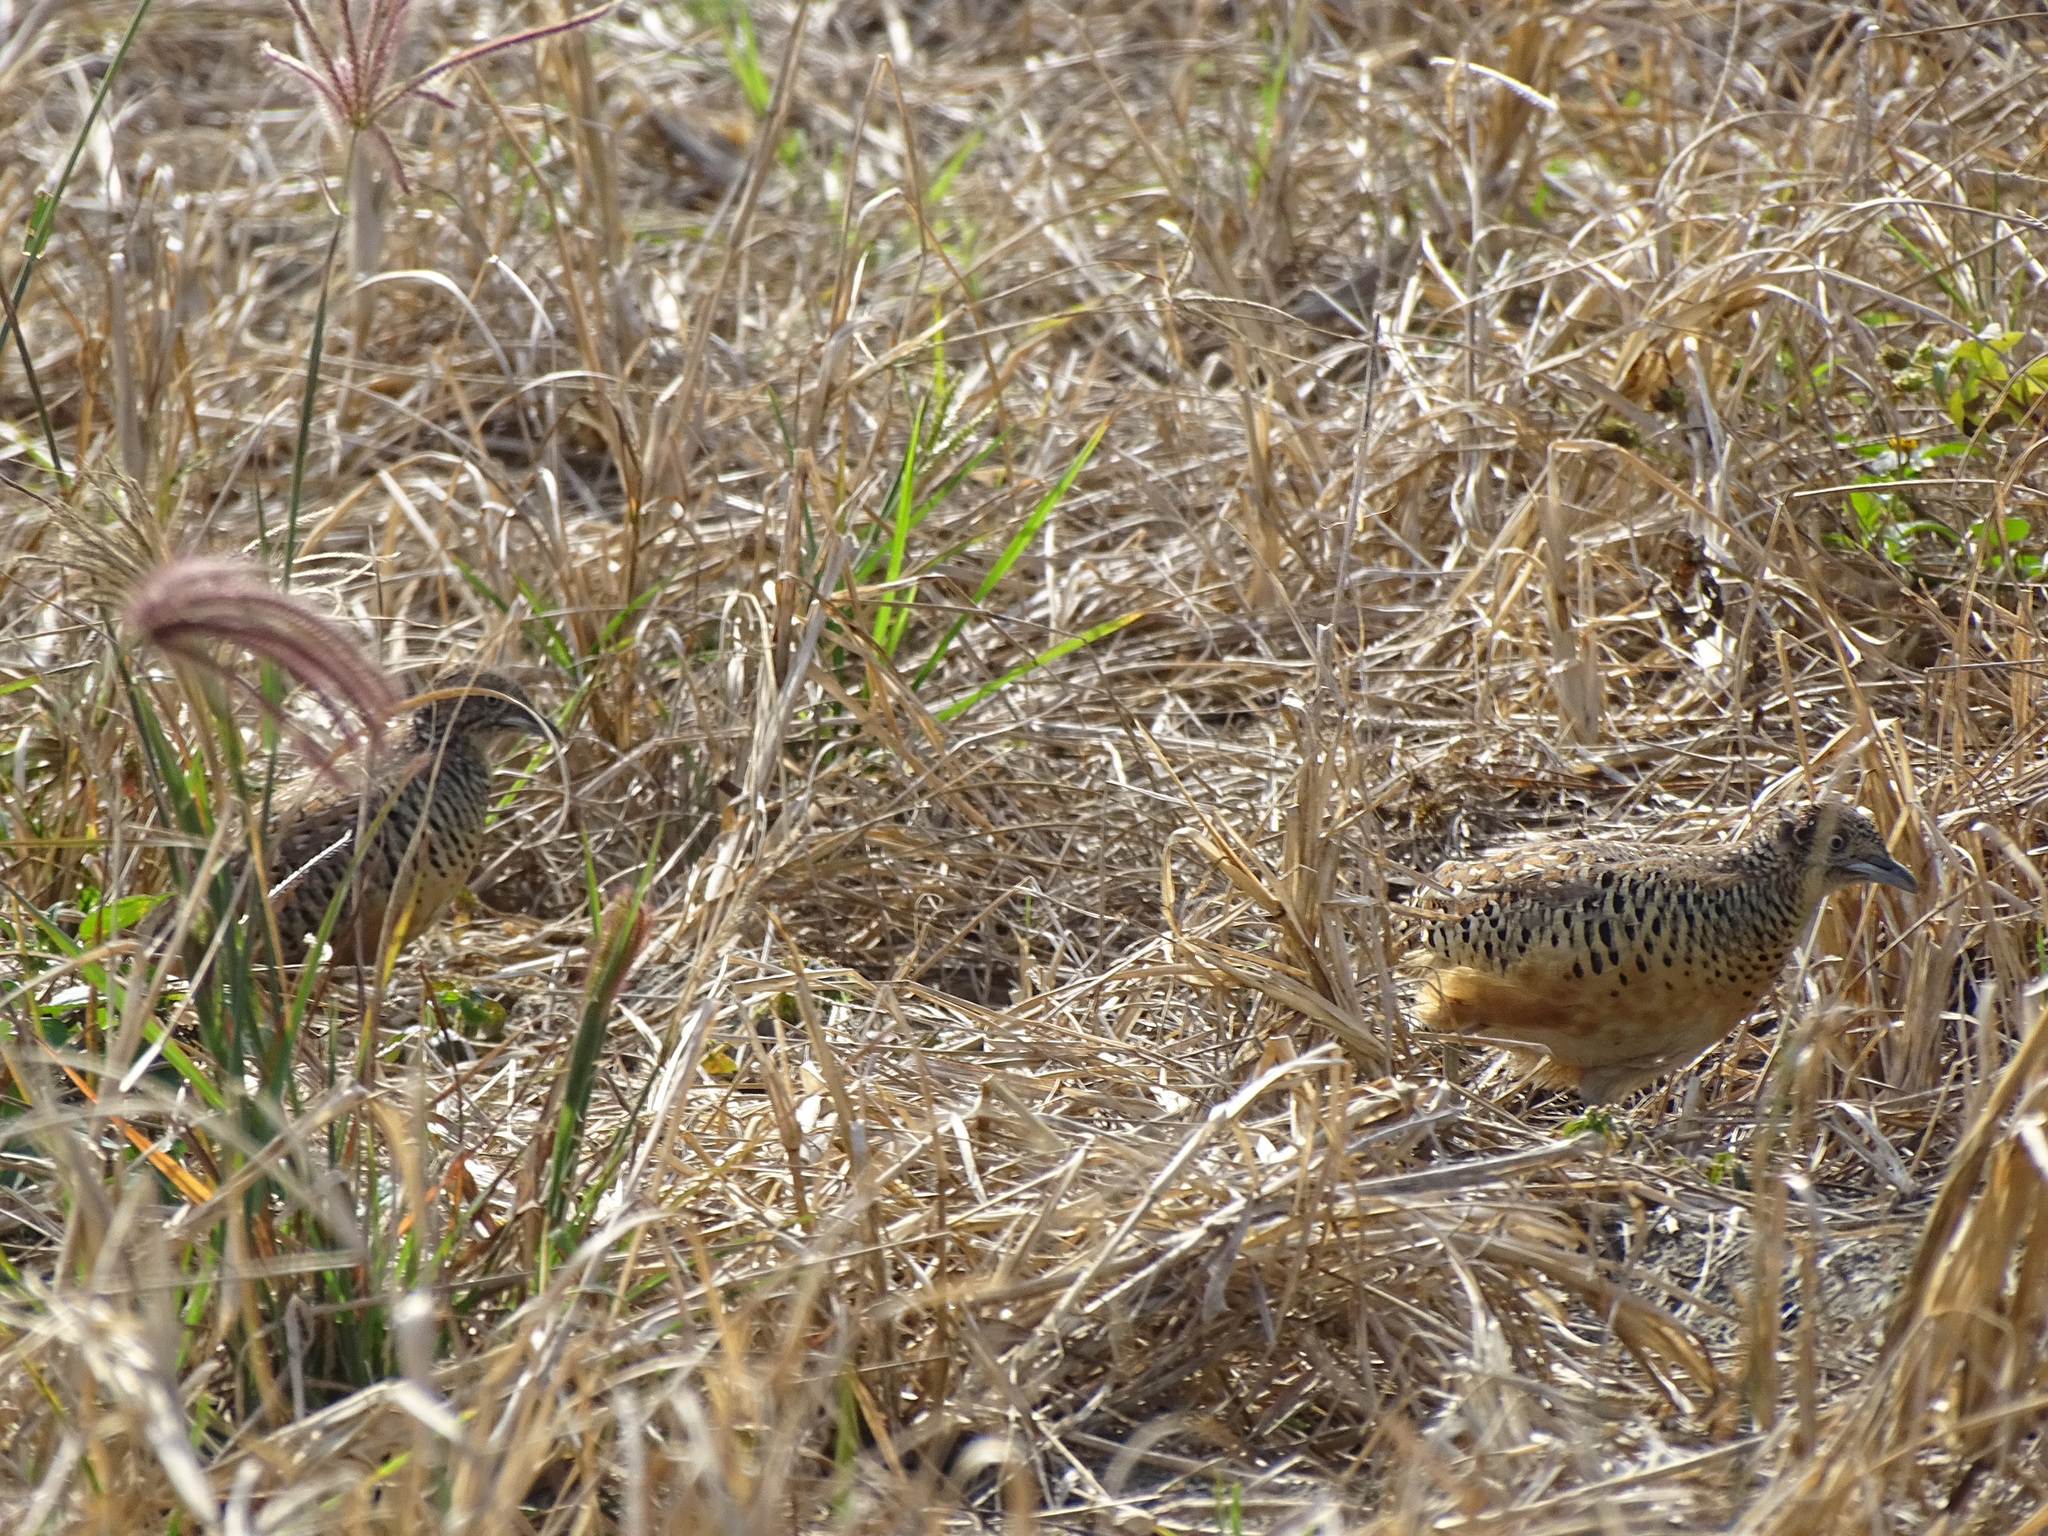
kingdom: Animalia
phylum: Chordata
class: Aves
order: Charadriiformes
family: Turnicidae
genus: Turnix
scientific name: Turnix suscitator
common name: Barred buttonquail
